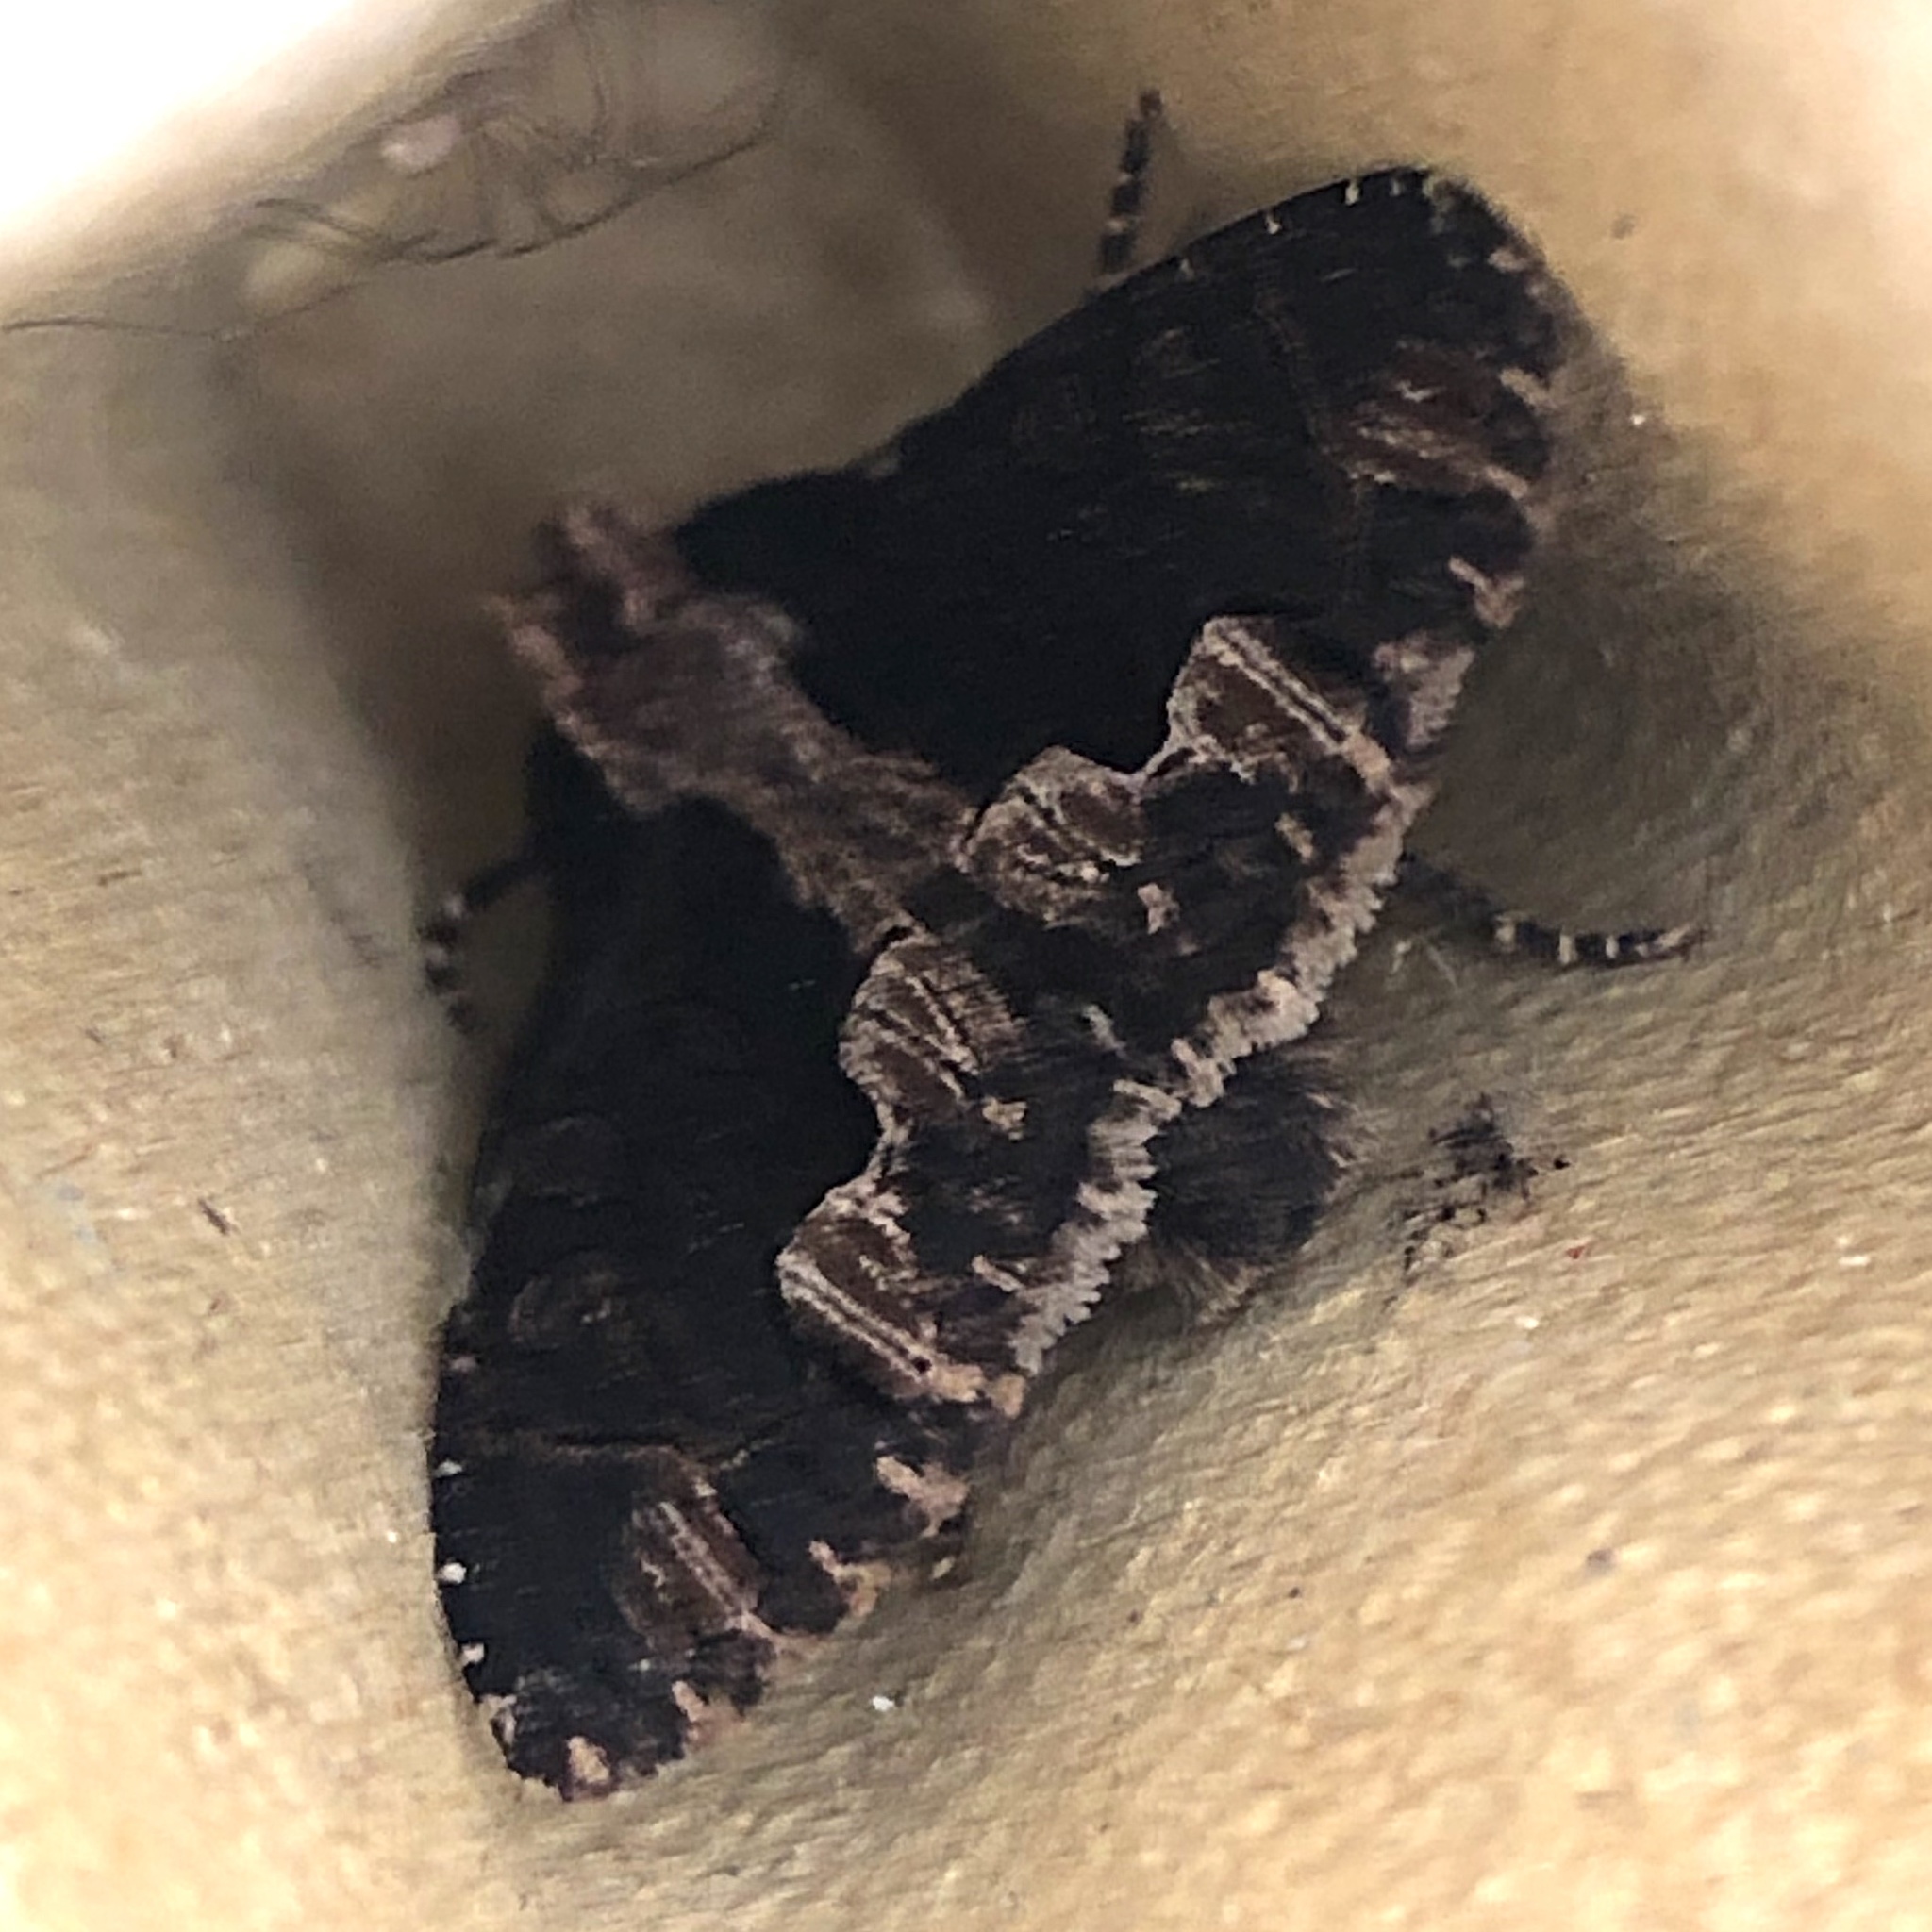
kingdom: Animalia
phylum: Arthropoda
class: Insecta
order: Lepidoptera
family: Noctuidae
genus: Dypterygia
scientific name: Dypterygia scabriuscula
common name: Bird's wing
